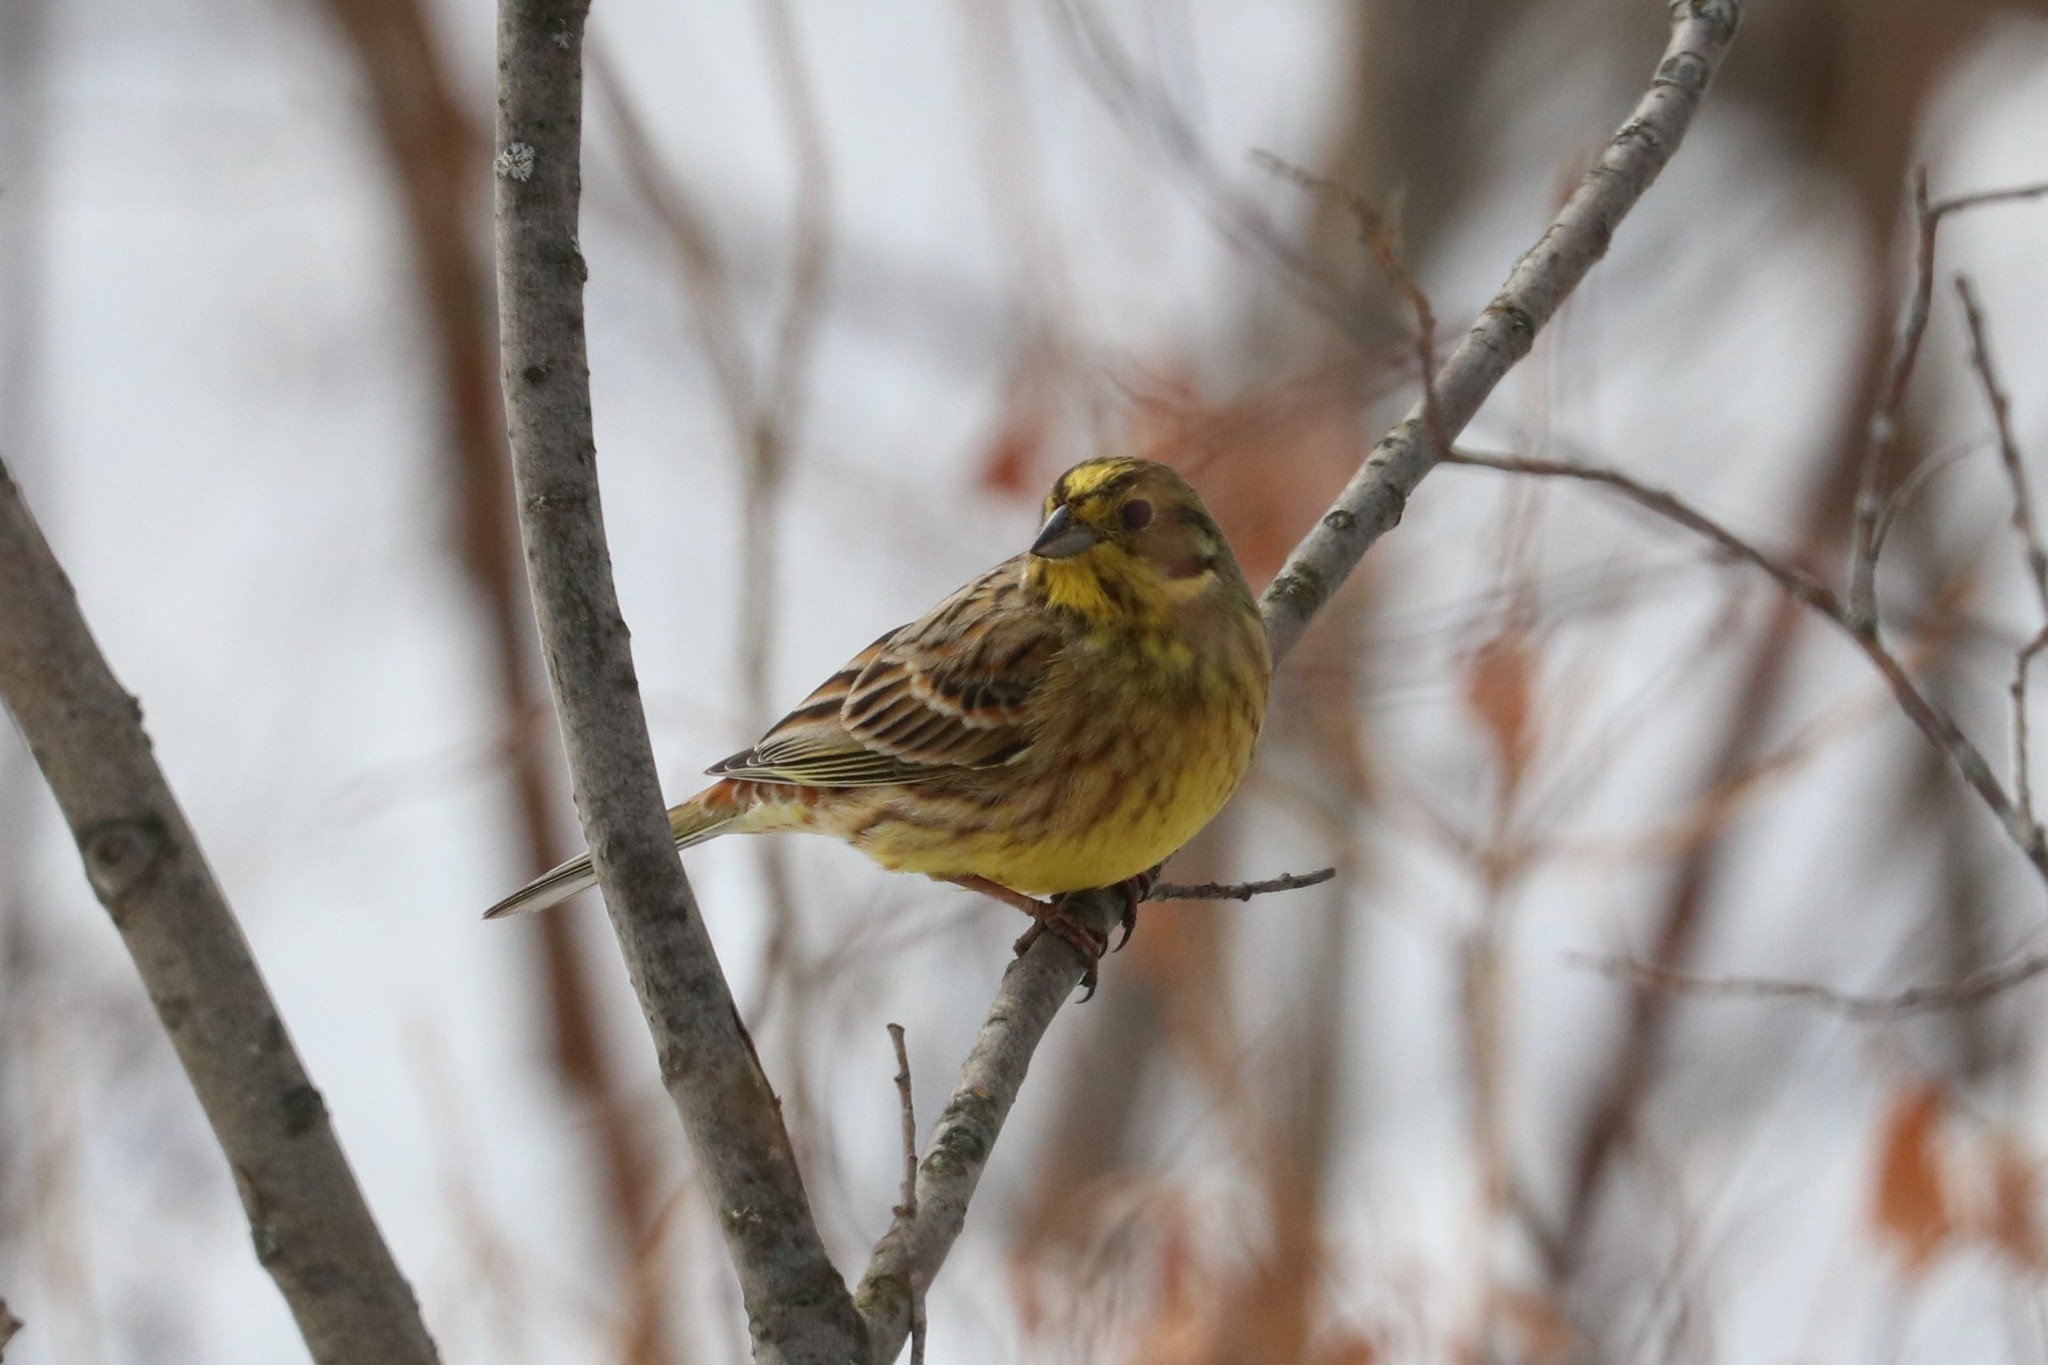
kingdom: Animalia
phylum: Chordata
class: Aves
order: Passeriformes
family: Emberizidae
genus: Emberiza
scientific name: Emberiza citrinella
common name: Yellowhammer
